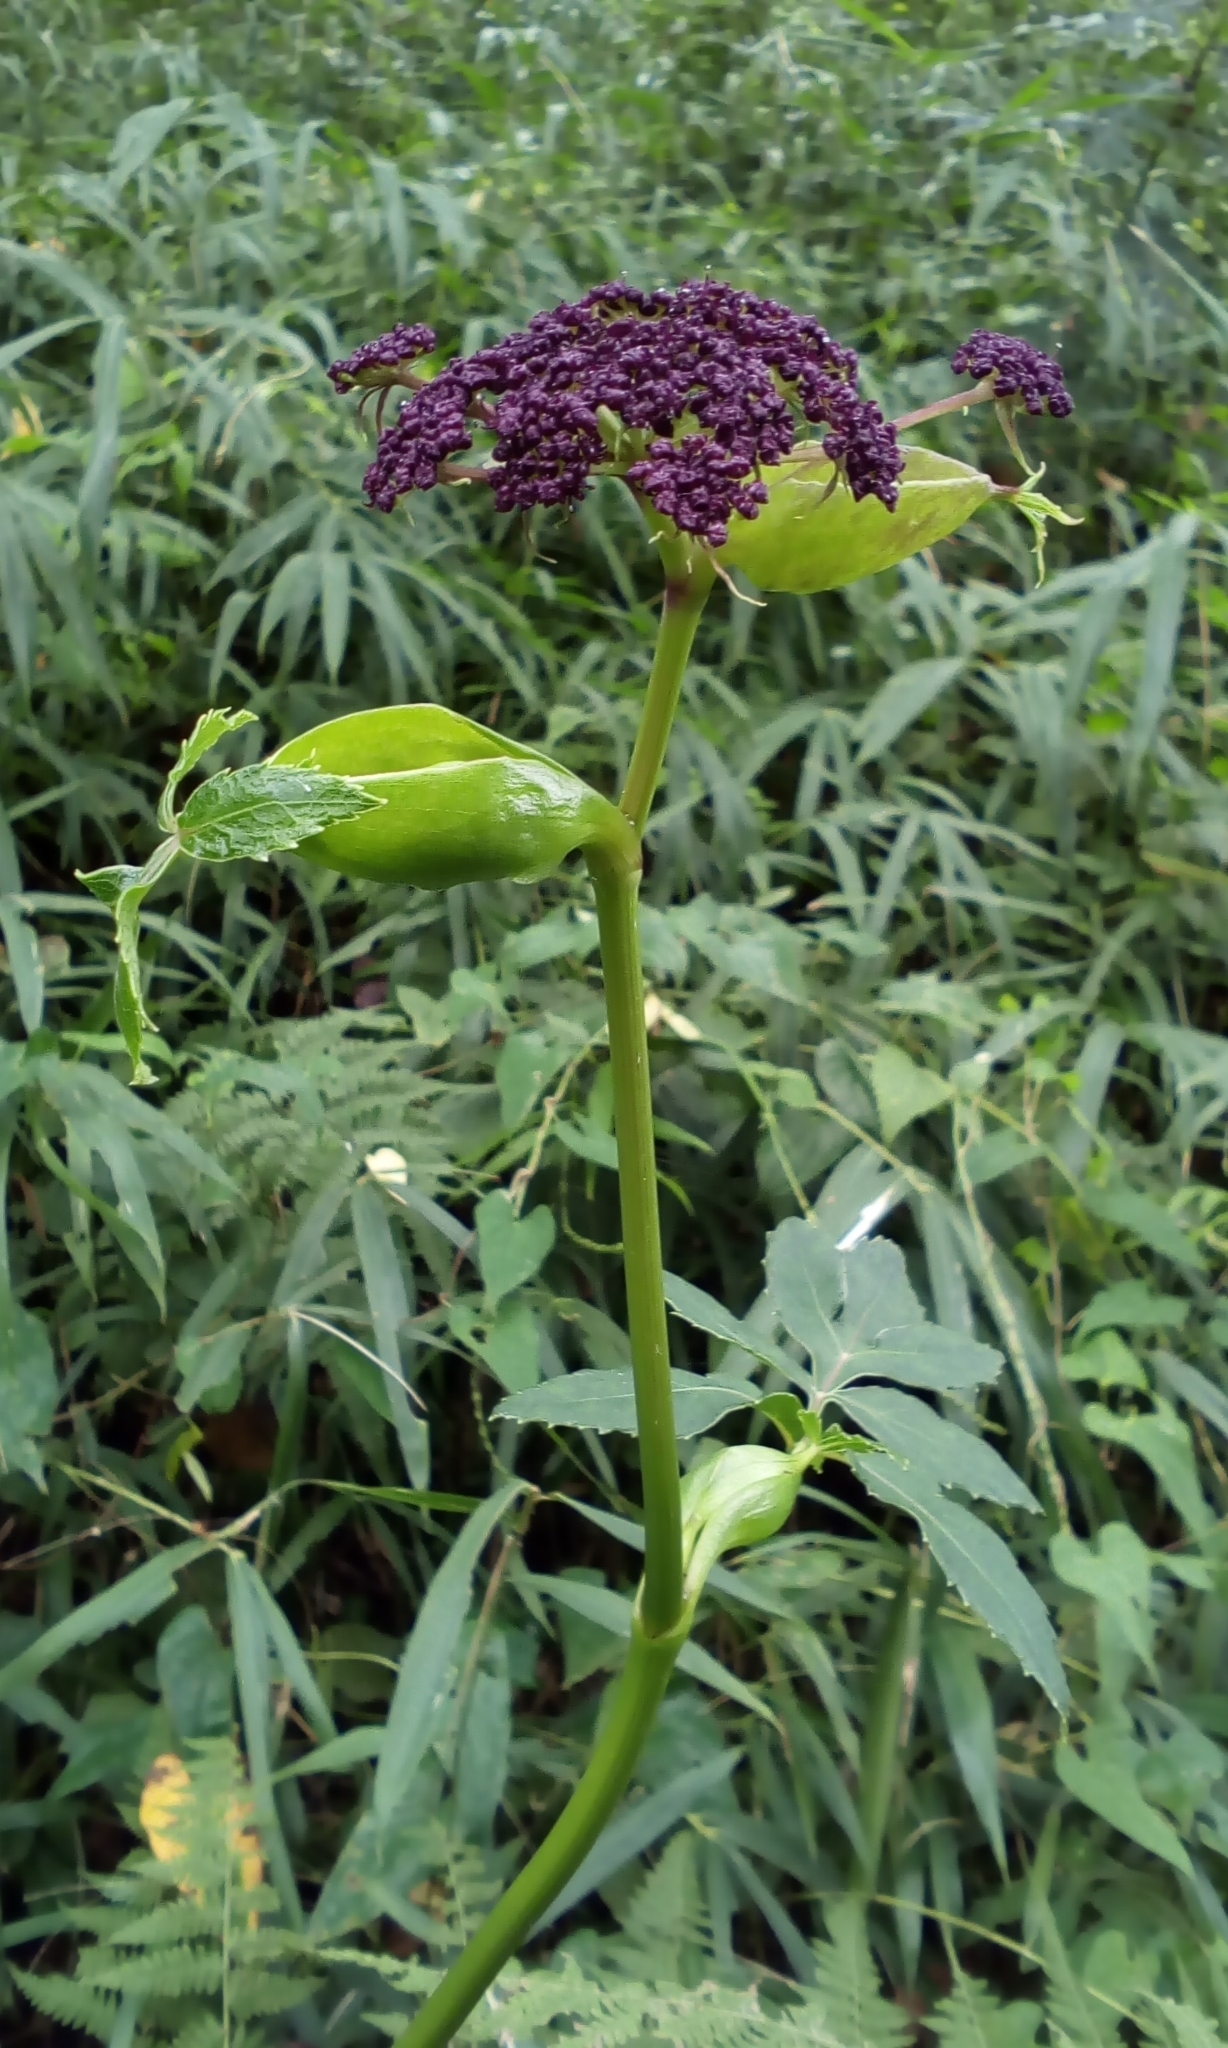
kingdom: Plantae
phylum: Tracheophyta
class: Magnoliopsida
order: Apiales
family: Apiaceae
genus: Halosciastrum
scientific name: Halosciastrum melanotilingia
